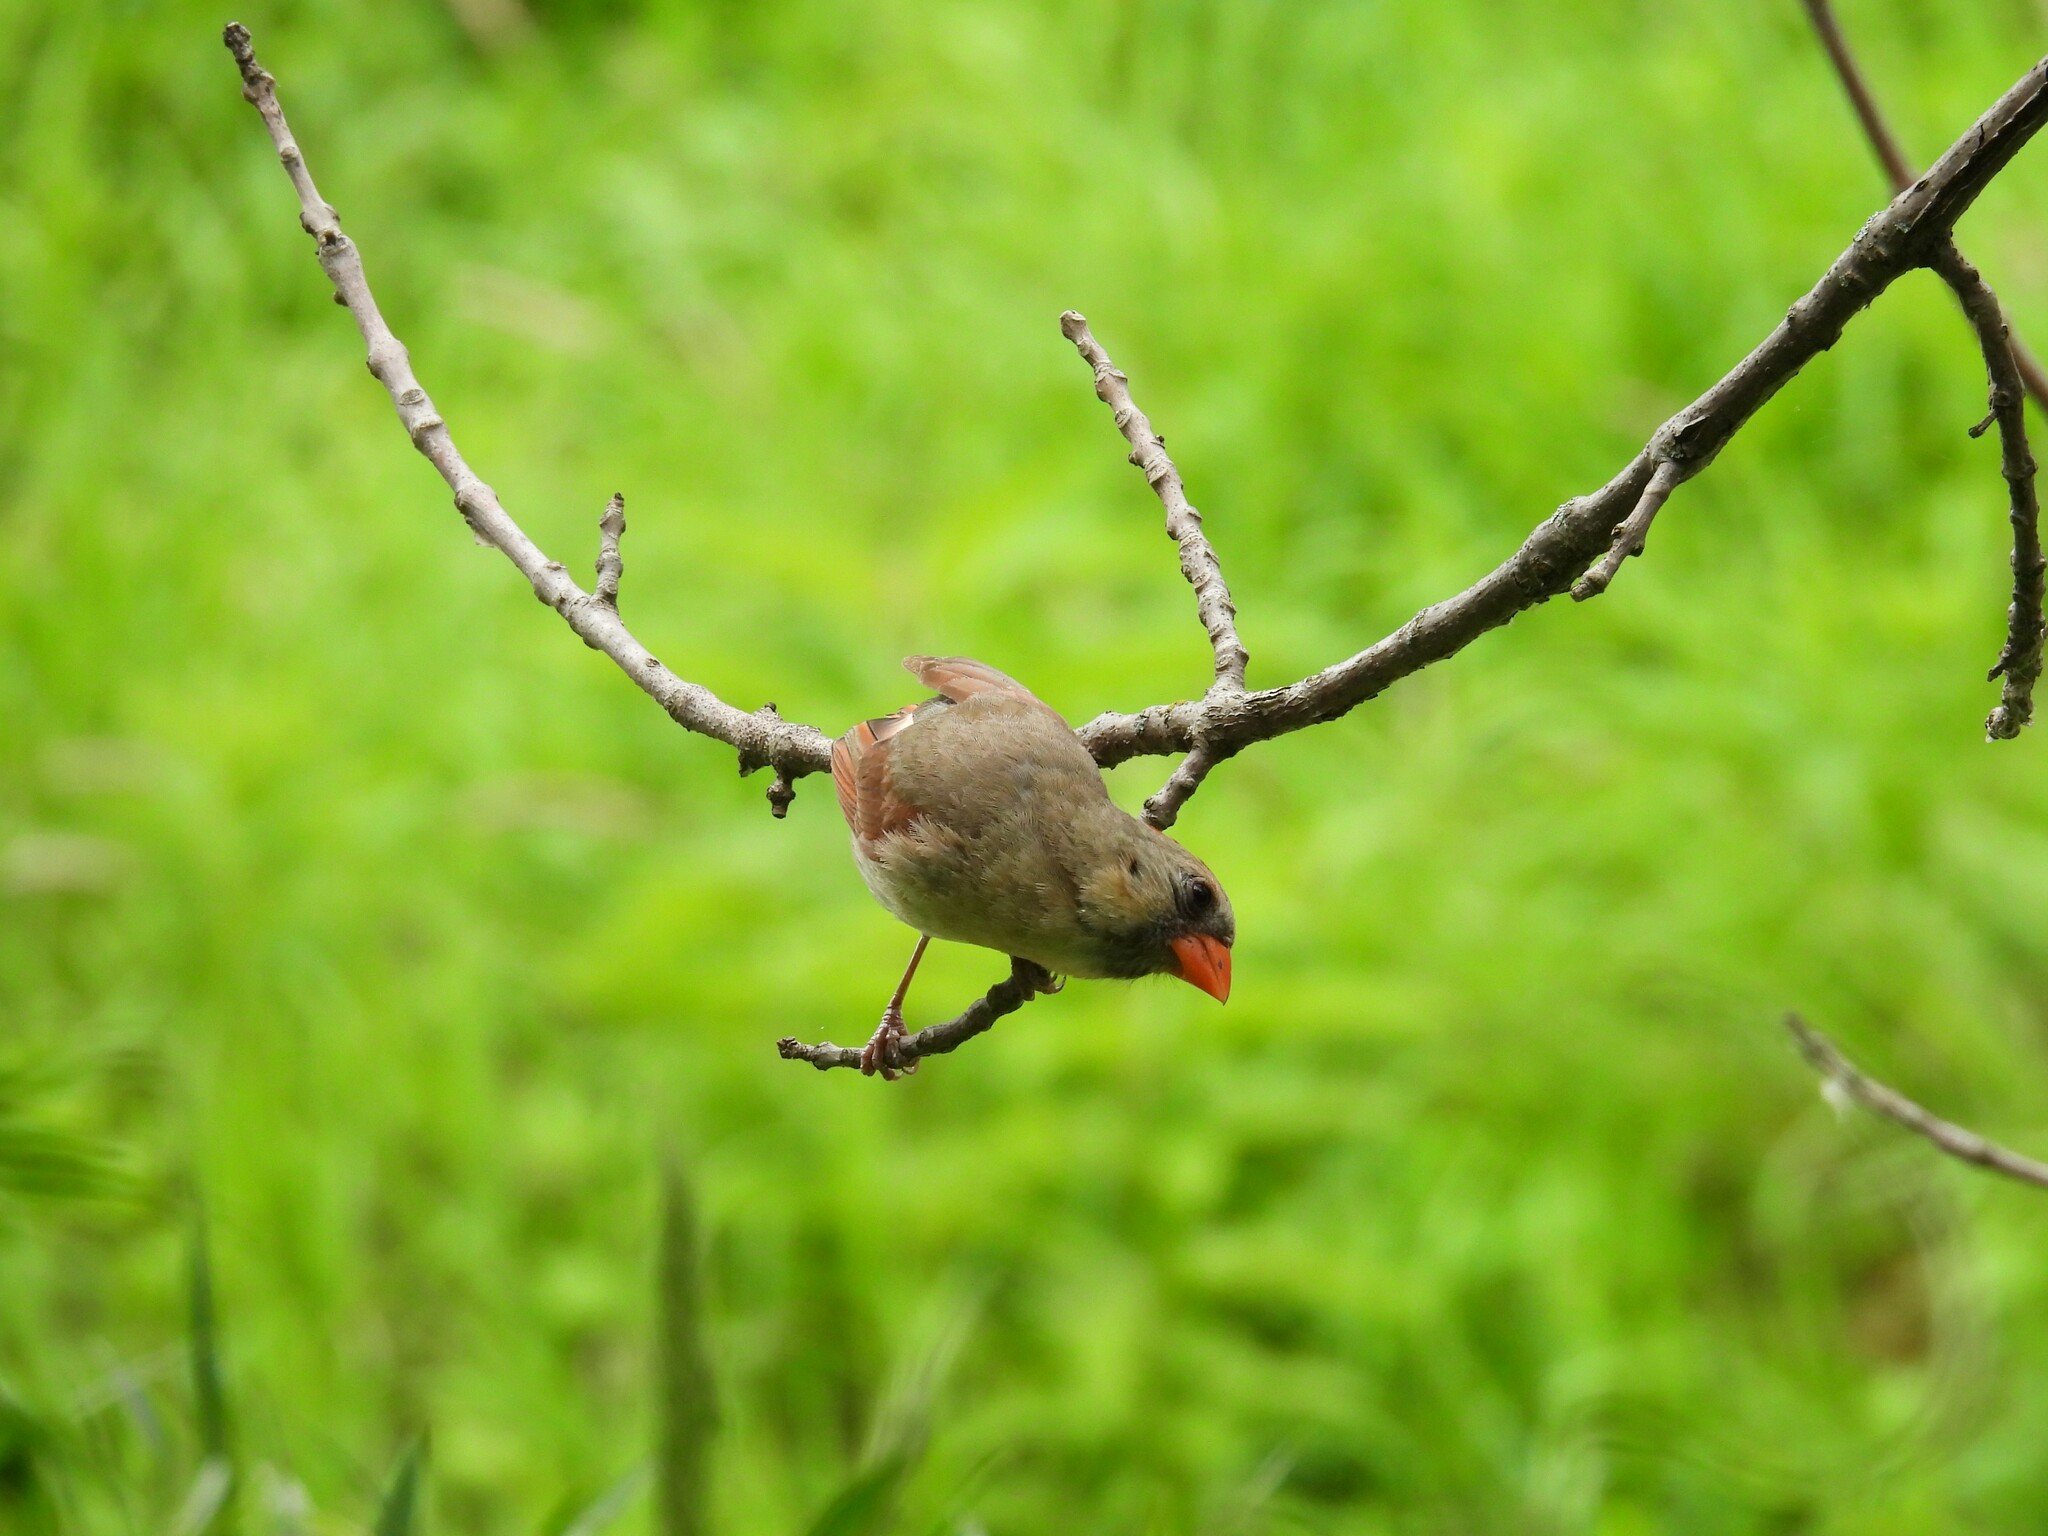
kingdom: Animalia
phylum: Chordata
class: Aves
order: Passeriformes
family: Cardinalidae
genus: Cardinalis
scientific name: Cardinalis cardinalis
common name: Northern cardinal
